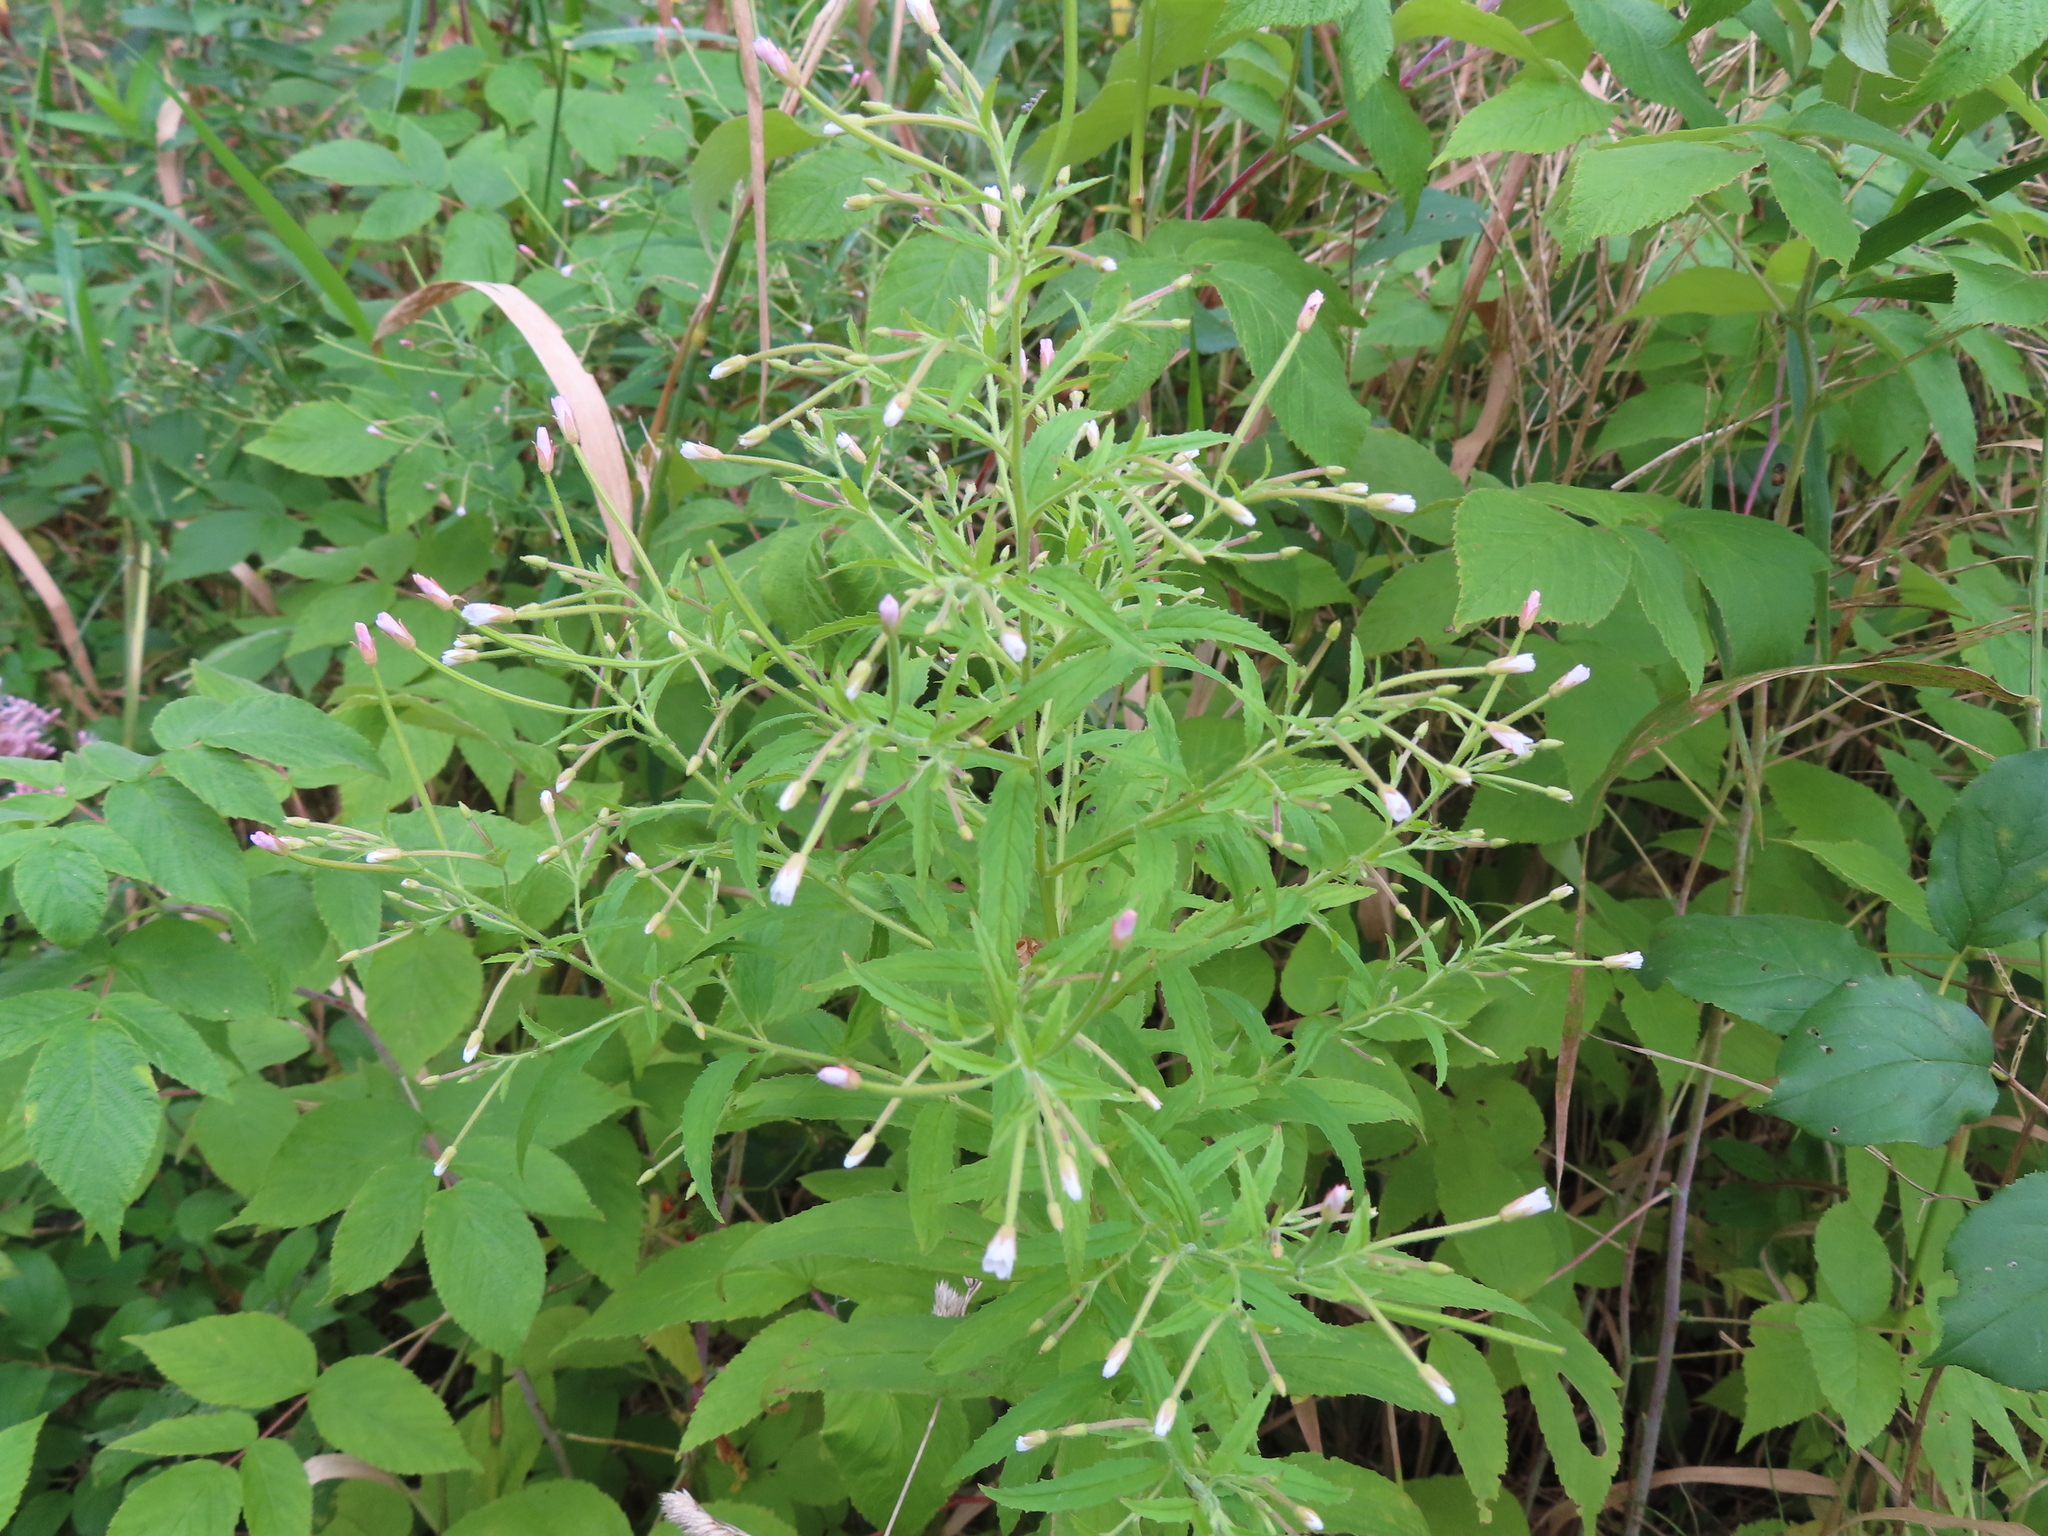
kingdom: Plantae
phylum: Tracheophyta
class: Magnoliopsida
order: Myrtales
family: Onagraceae
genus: Epilobium
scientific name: Epilobium coloratum
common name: Bronze willowherb
